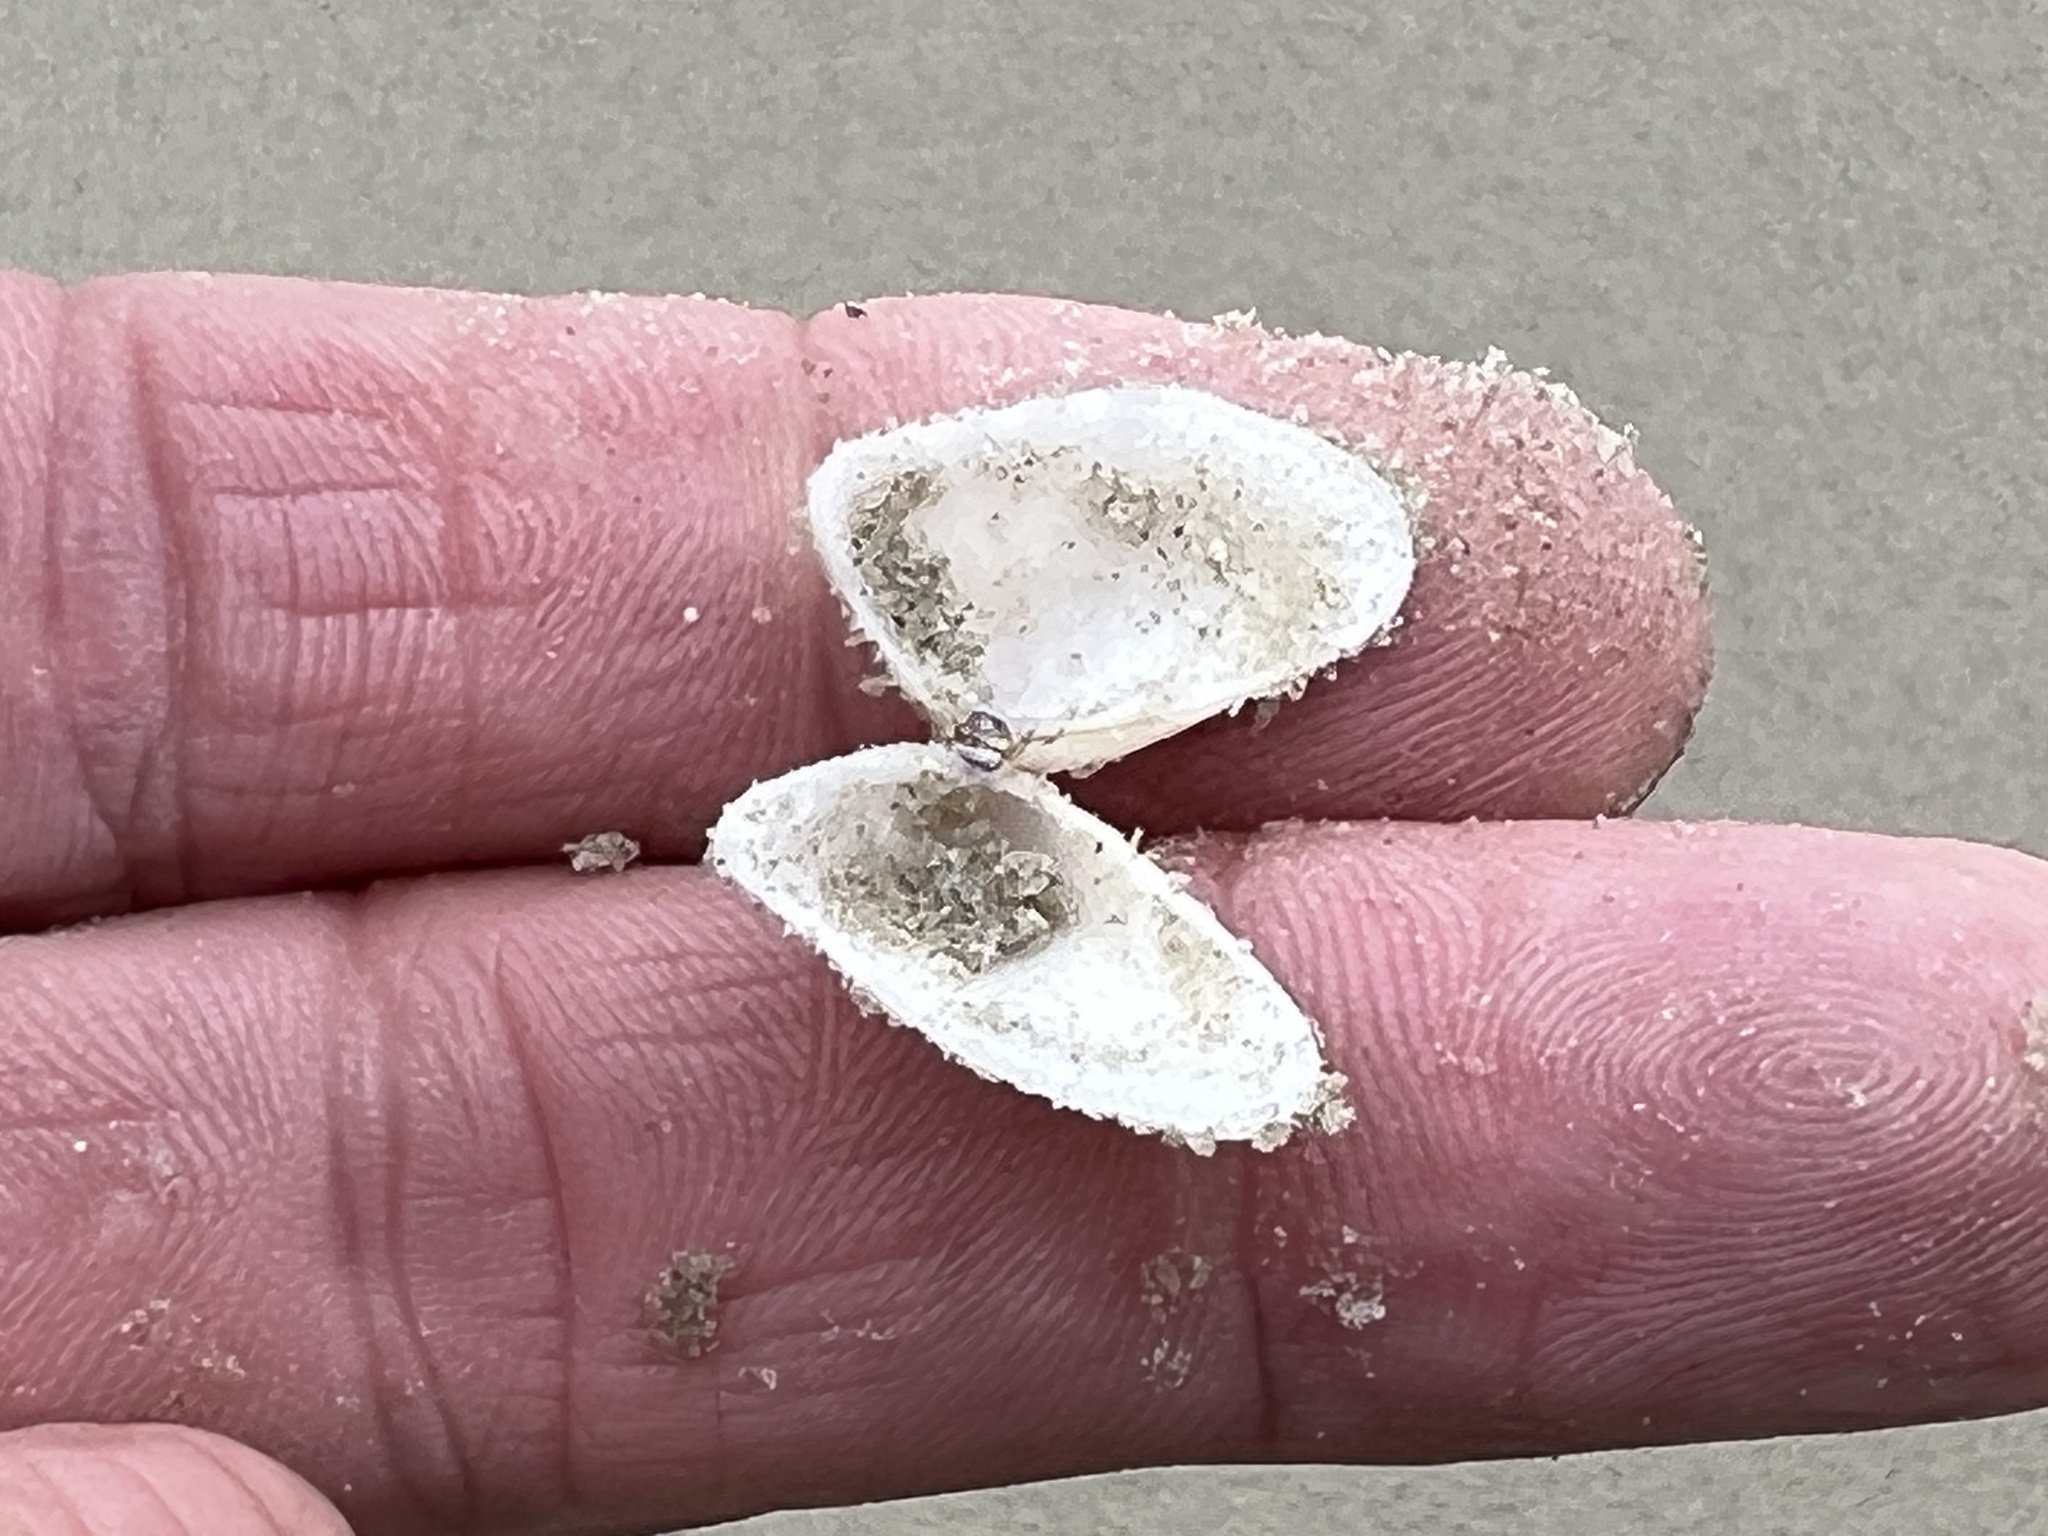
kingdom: Animalia
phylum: Mollusca
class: Bivalvia
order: Cardiida
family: Donacidae
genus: Donax
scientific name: Donax variabilis
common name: Butterfly shell
